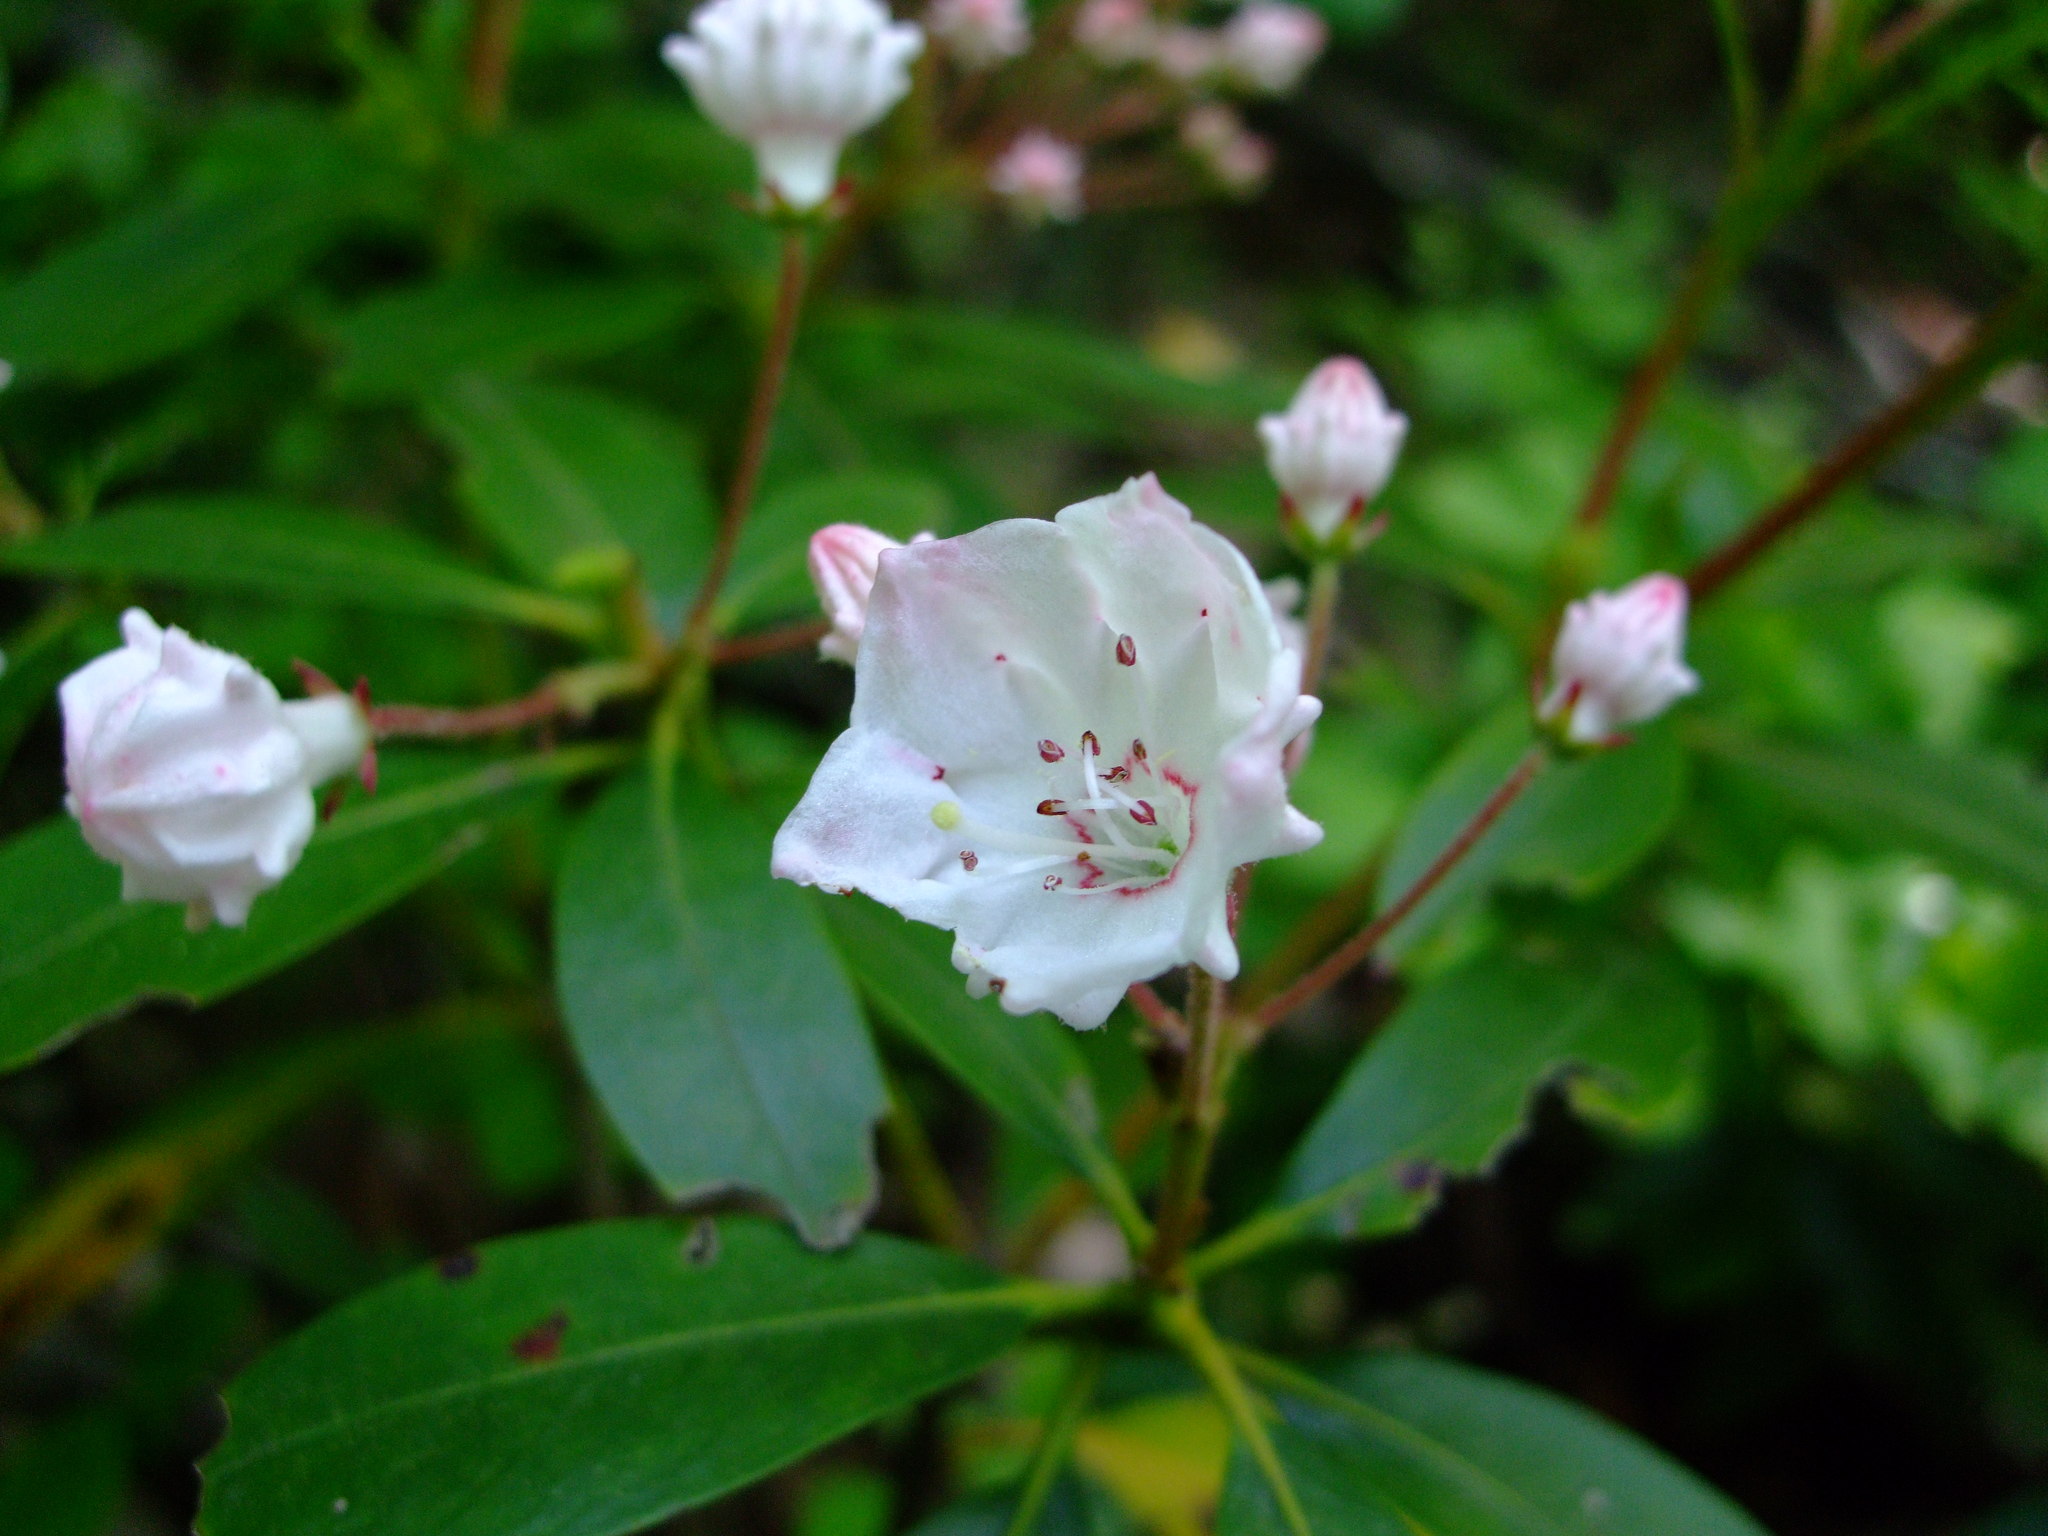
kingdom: Plantae
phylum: Tracheophyta
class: Magnoliopsida
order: Ericales
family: Ericaceae
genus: Kalmia
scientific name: Kalmia latifolia
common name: Mountain-laurel
